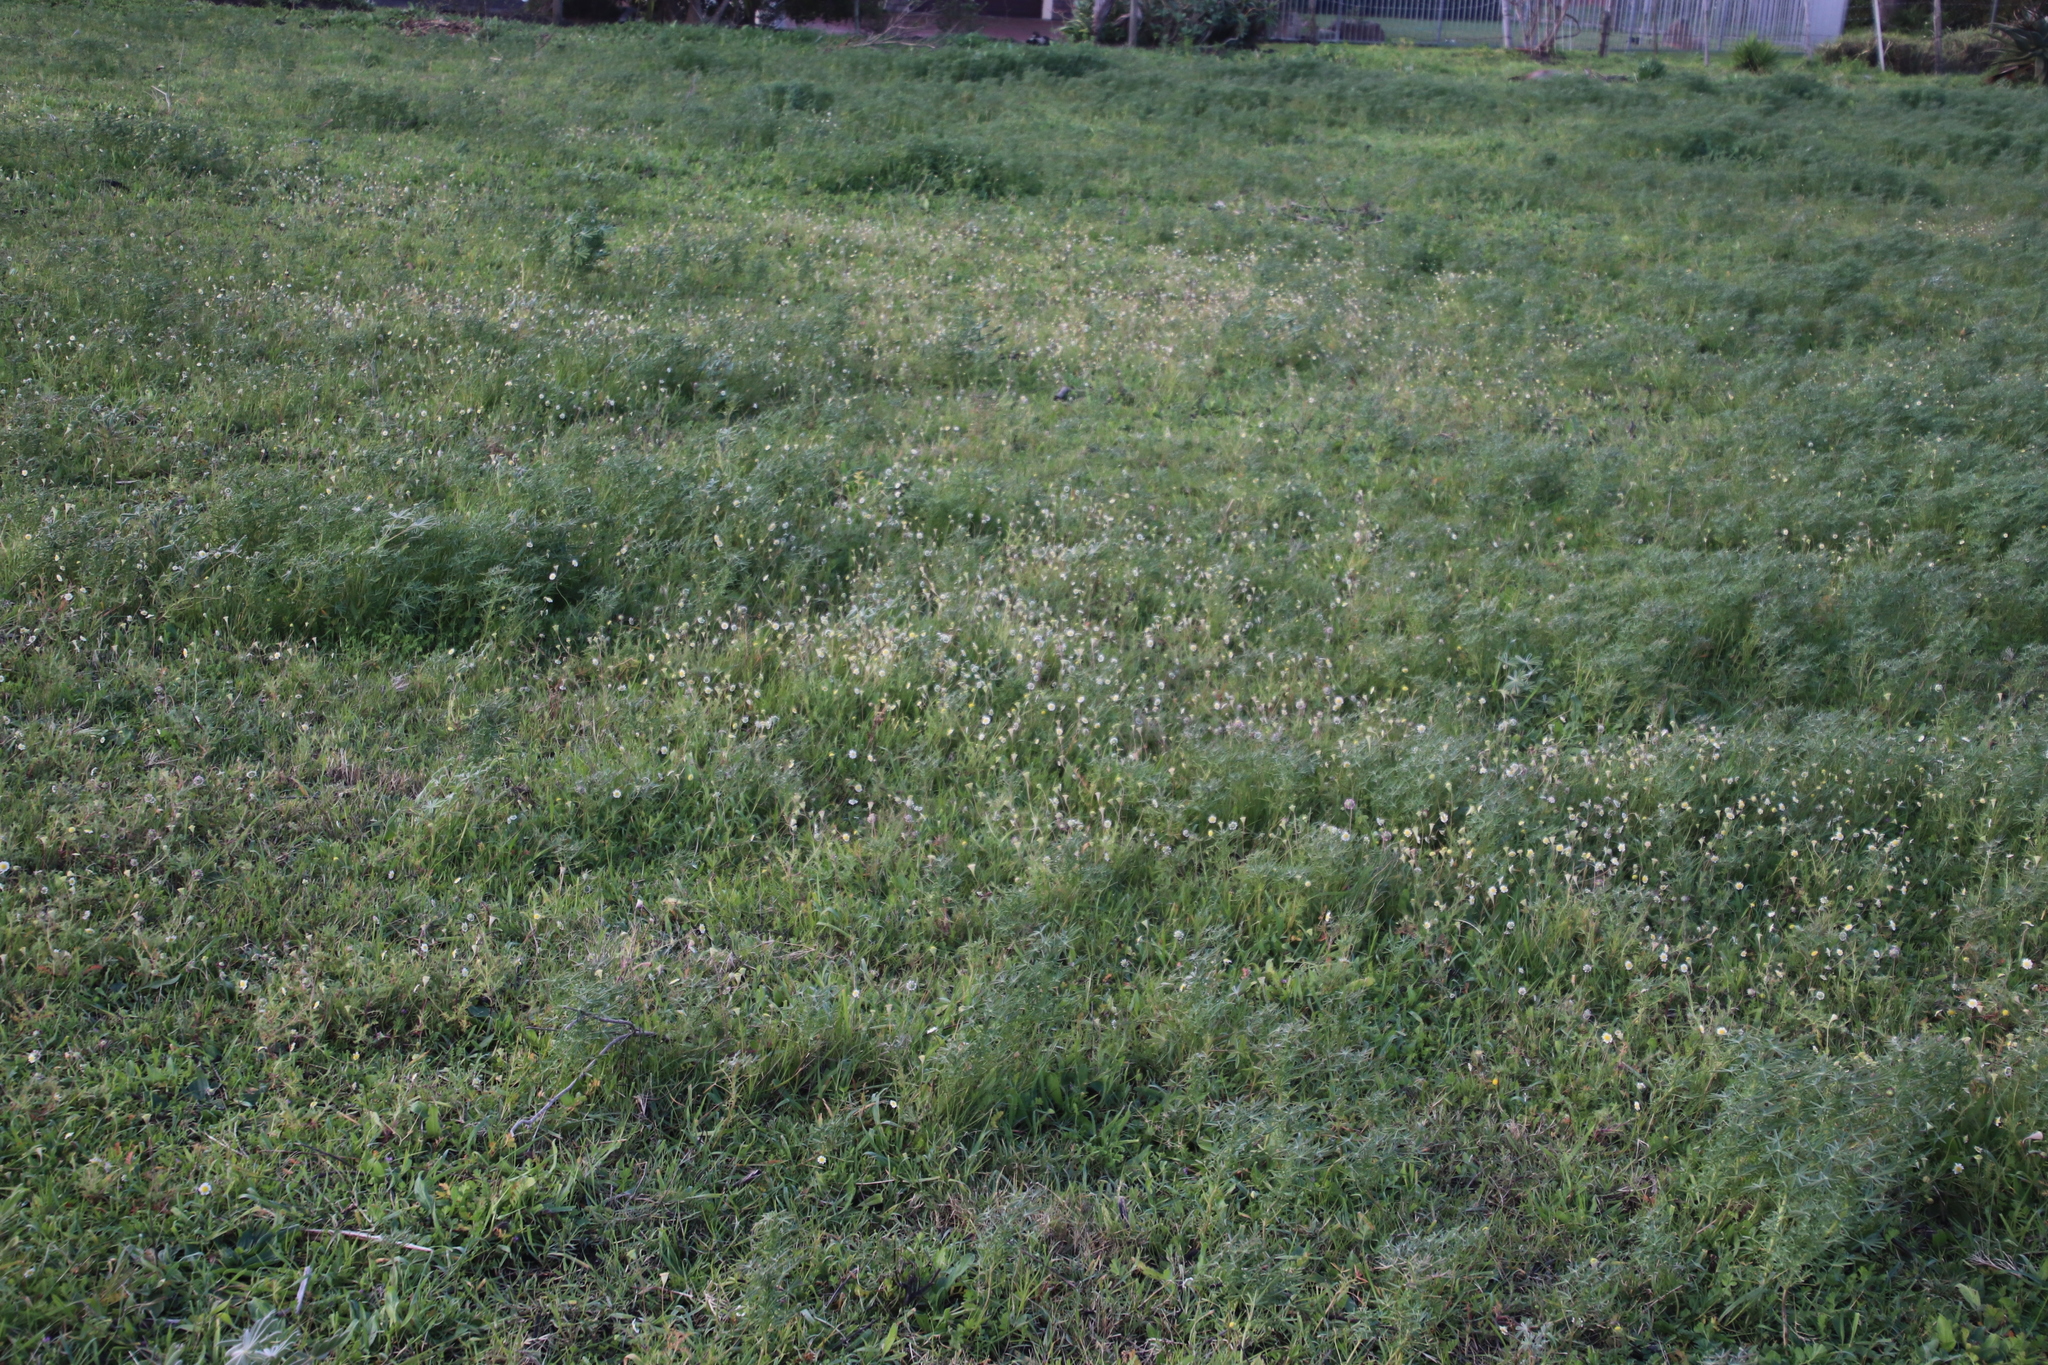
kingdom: Plantae
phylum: Tracheophyta
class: Magnoliopsida
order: Asterales
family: Asteraceae
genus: Cotula
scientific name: Cotula turbinata
